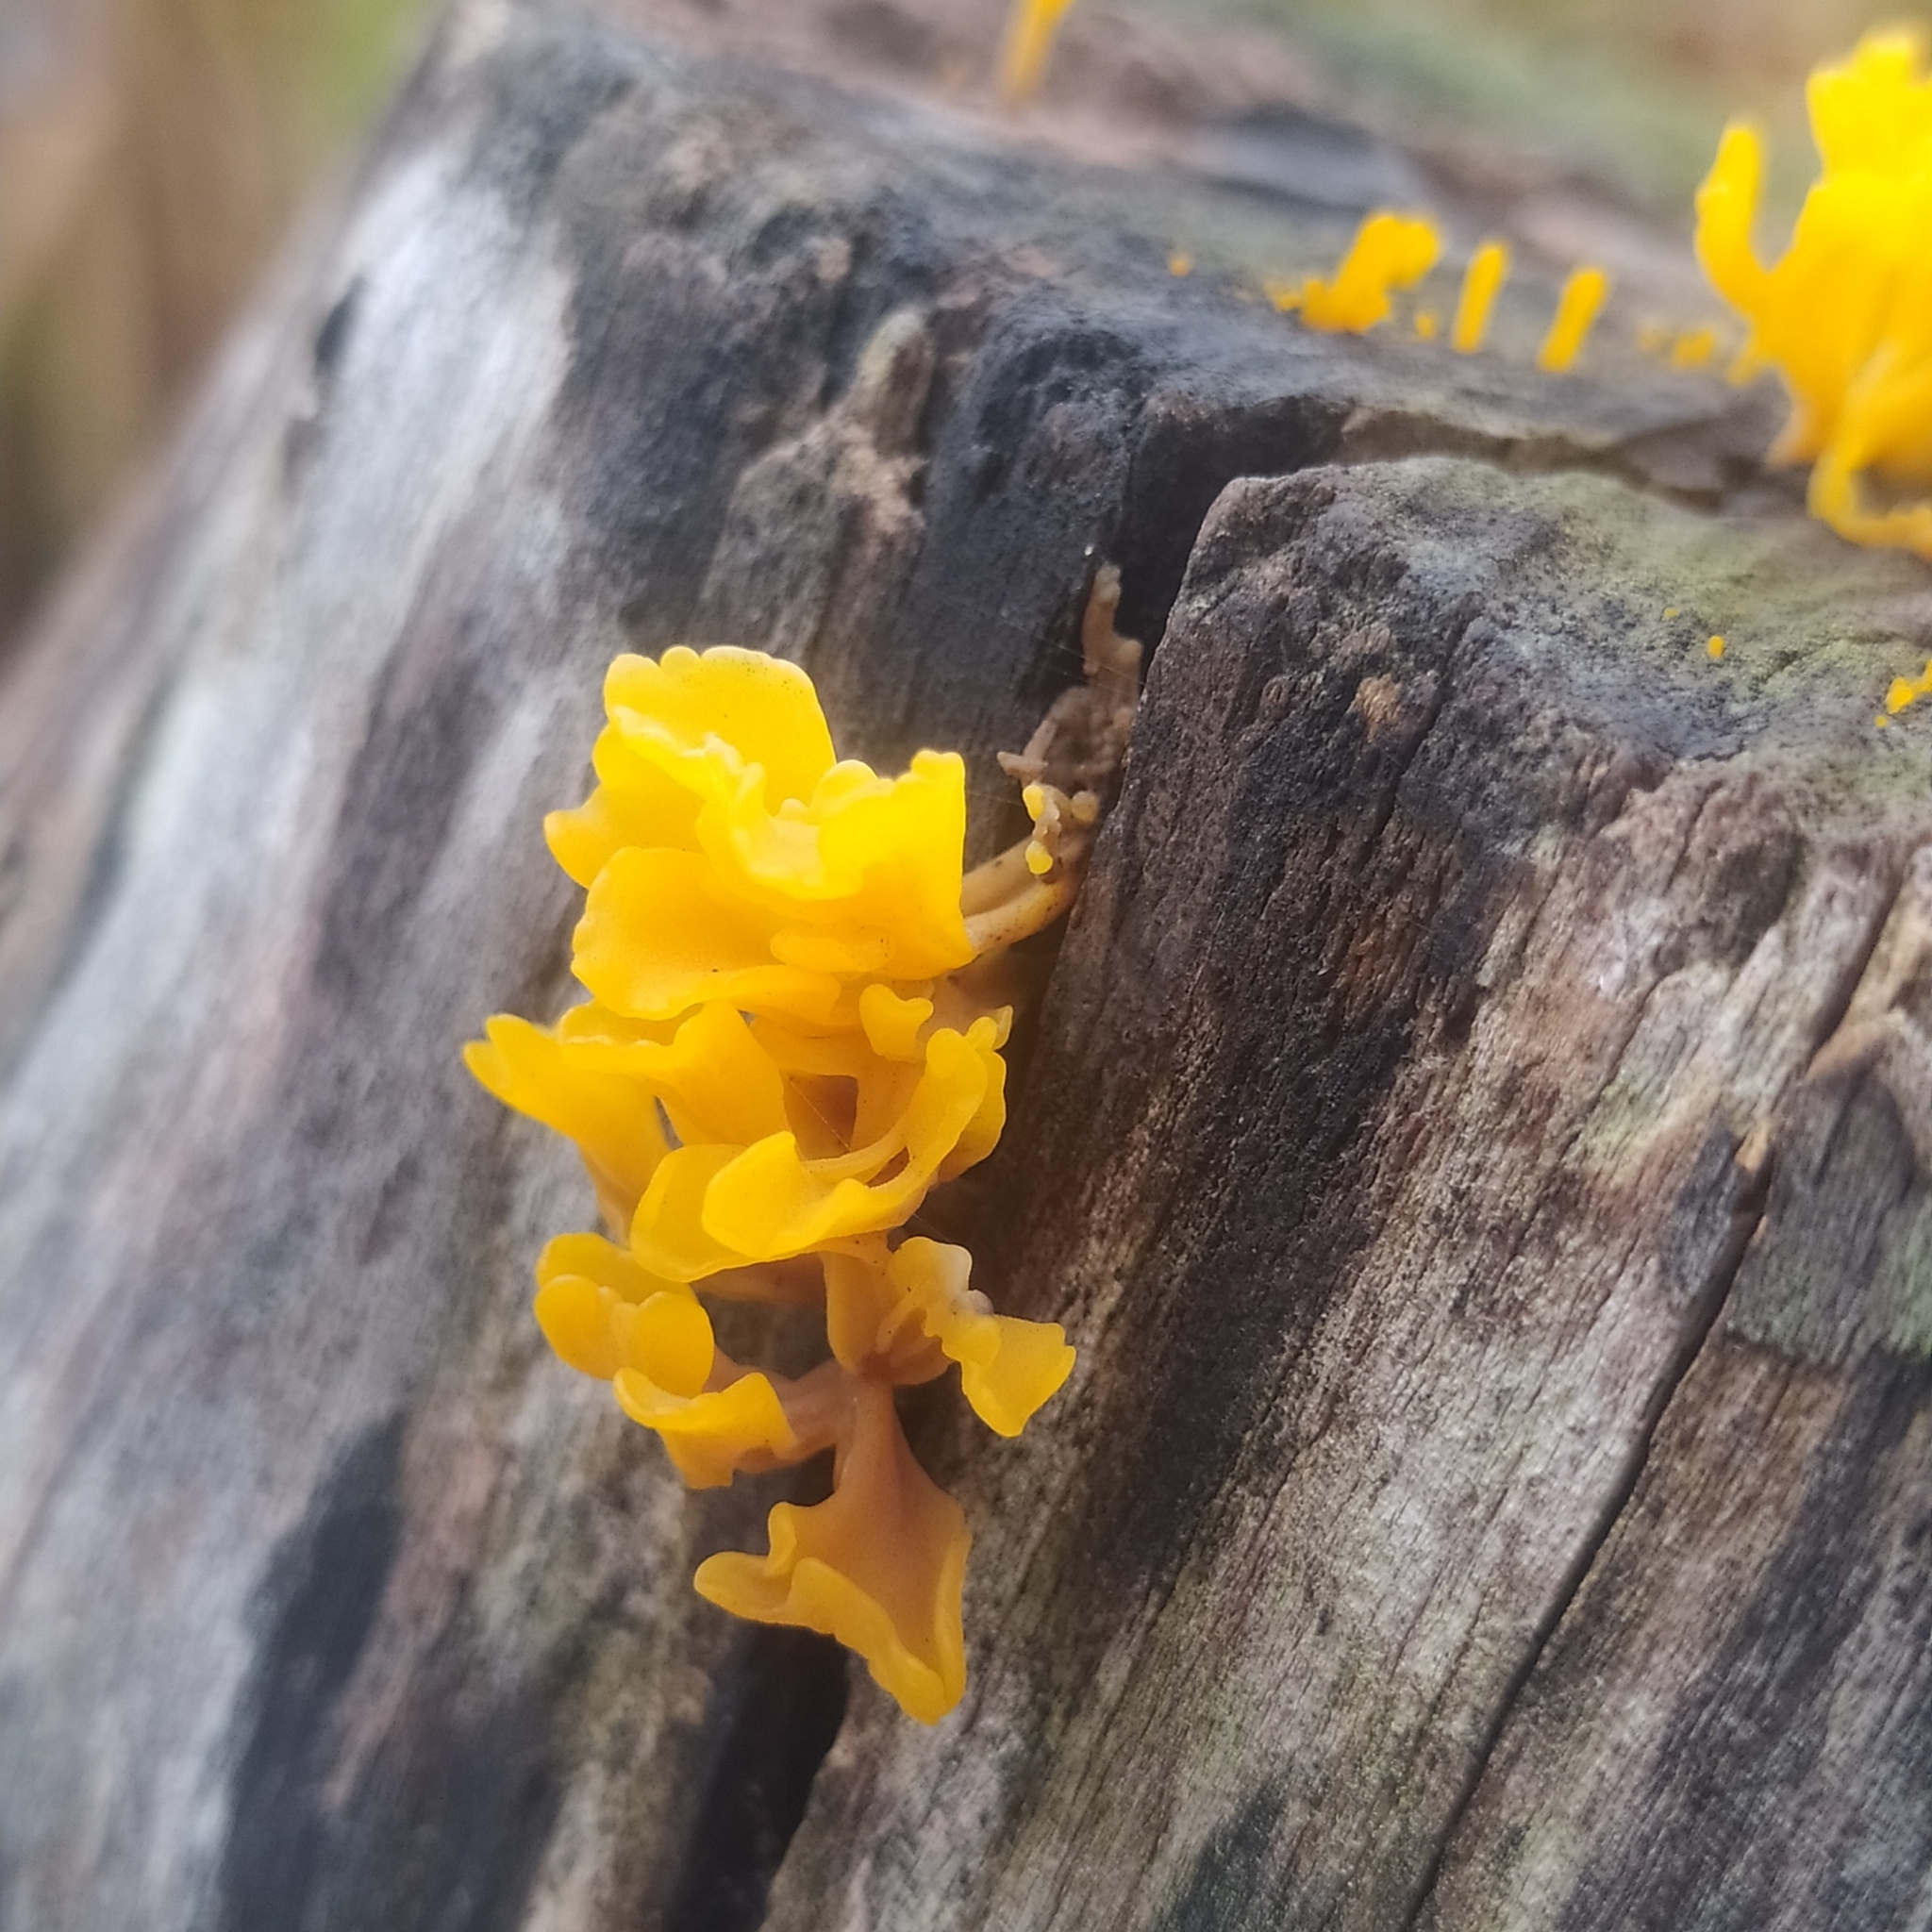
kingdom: Fungi
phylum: Basidiomycota
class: Dacrymycetes
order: Dacrymycetales
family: Dacrymycetaceae
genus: Dacrymyces
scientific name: Dacrymyces spathularius
